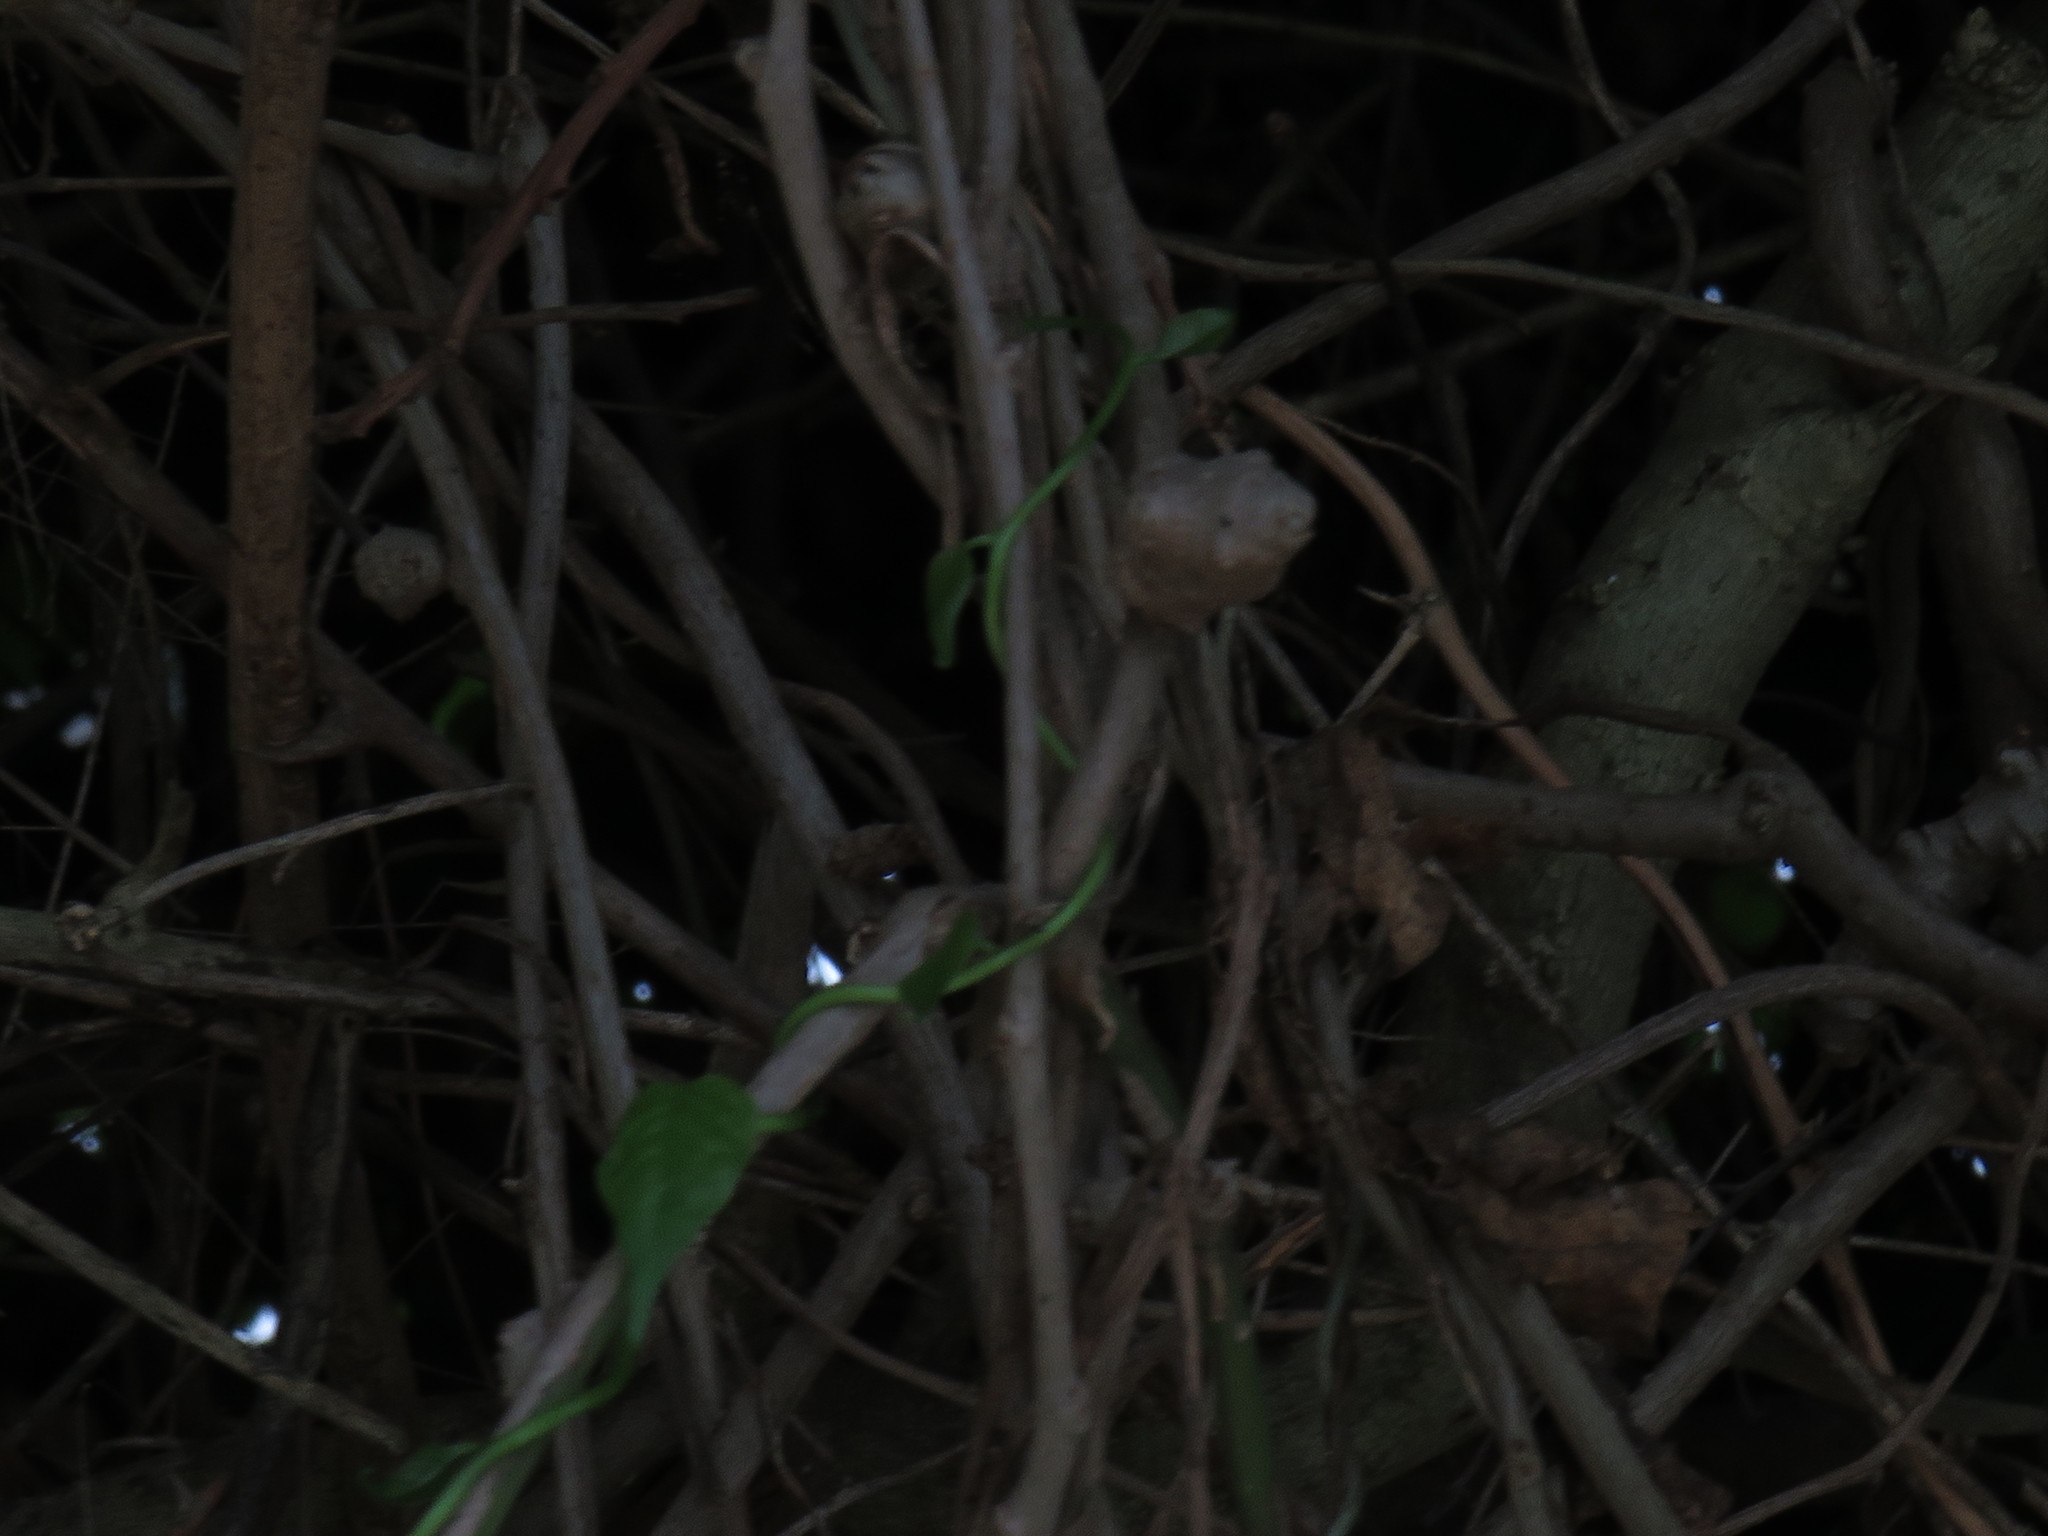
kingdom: Plantae
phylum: Tracheophyta
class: Magnoliopsida
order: Caryophyllales
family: Basellaceae
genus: Anredera
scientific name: Anredera cordifolia
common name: Heartleaf madeiravine
